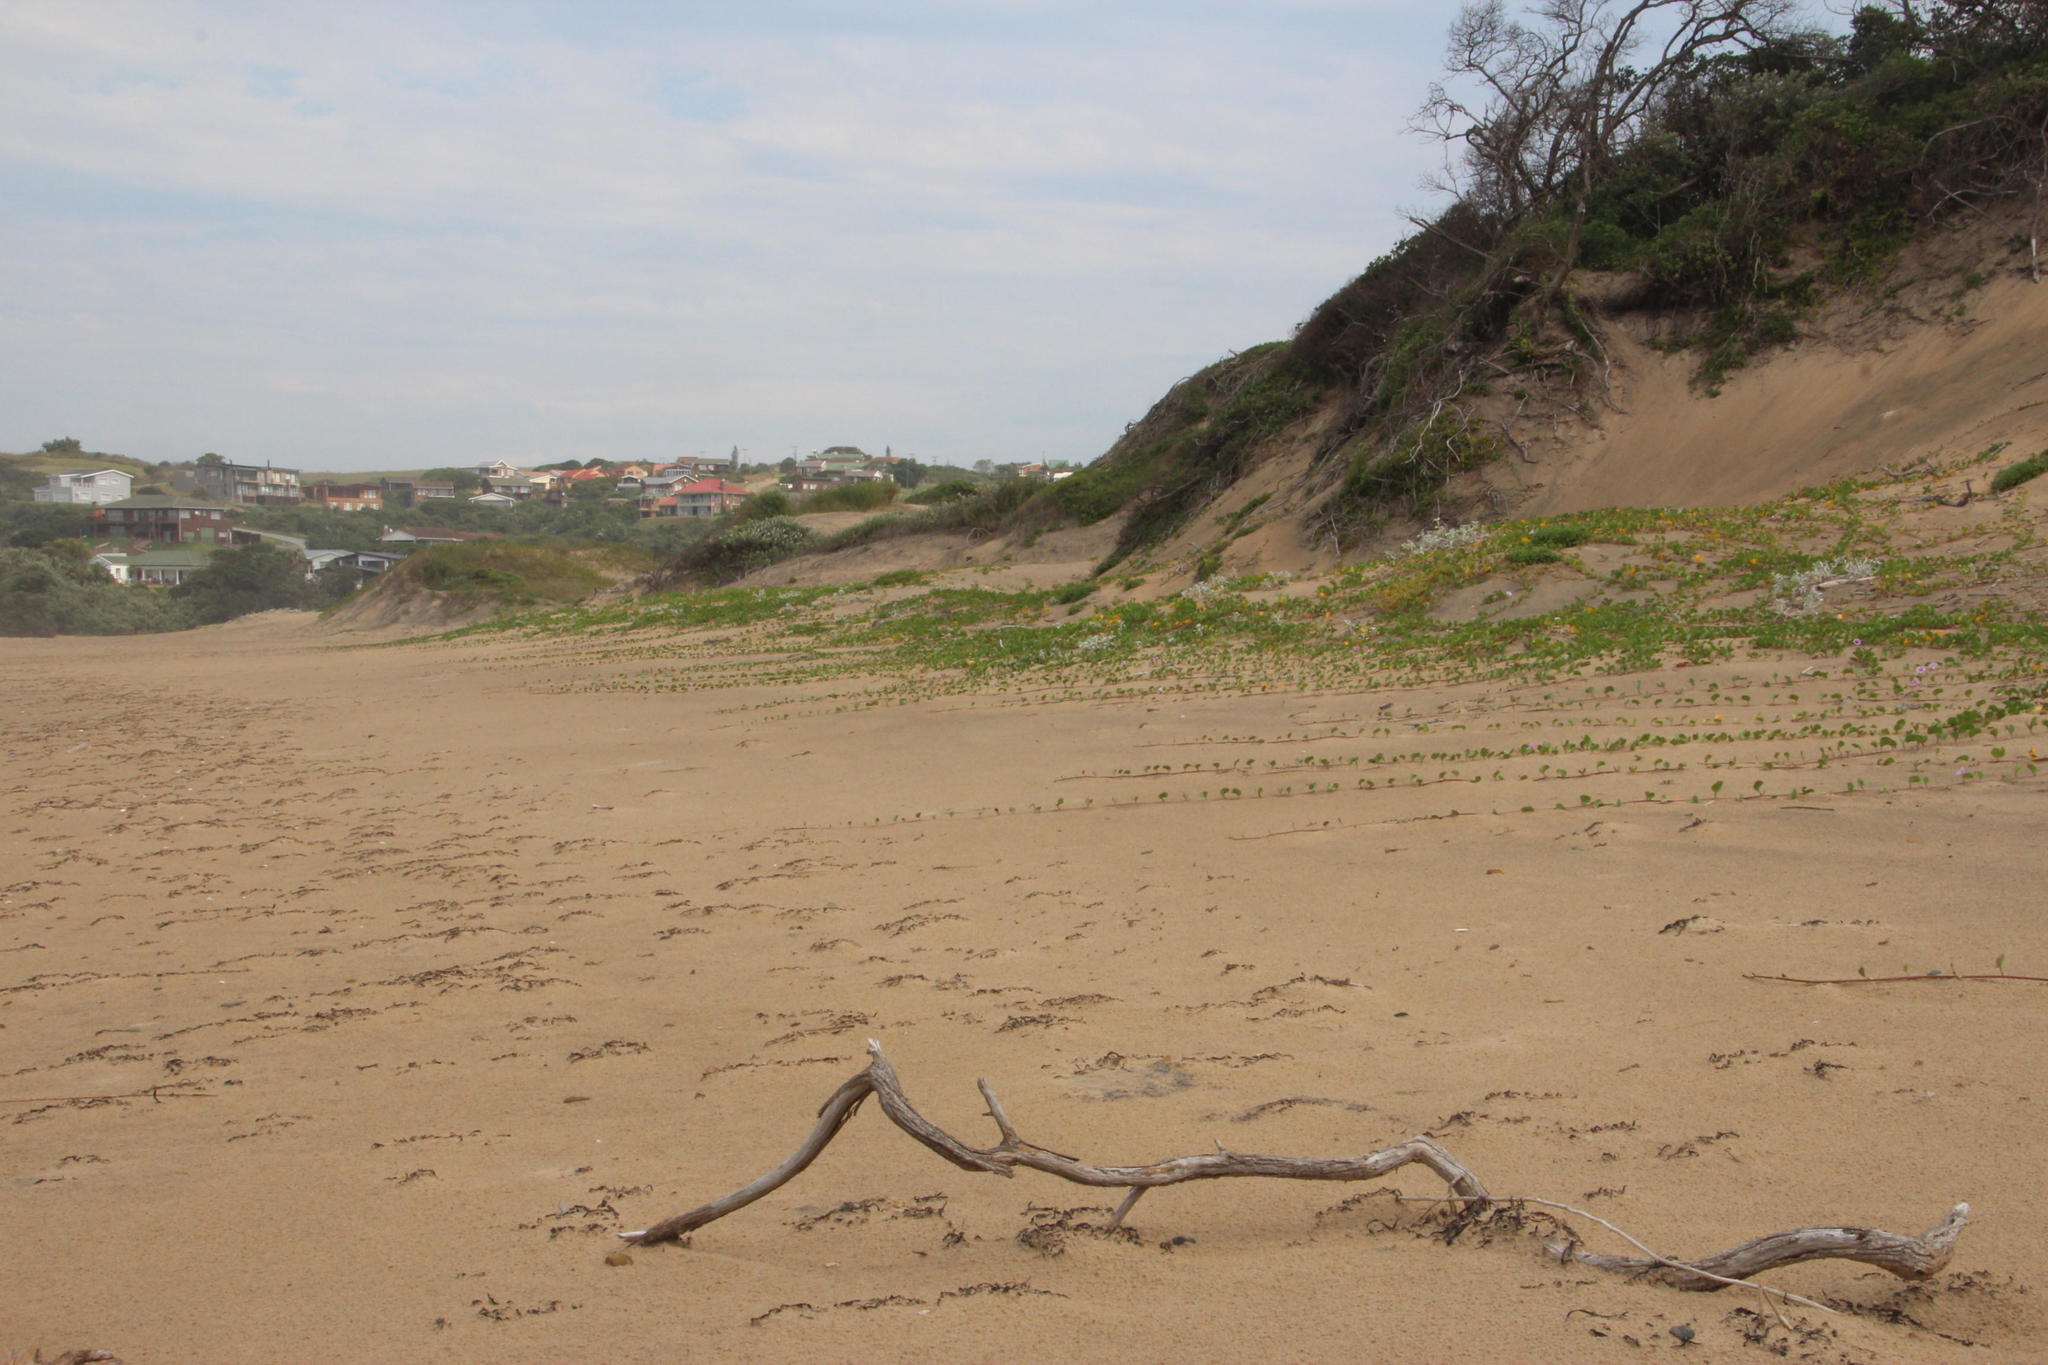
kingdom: Plantae
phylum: Tracheophyta
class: Magnoliopsida
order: Solanales
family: Convolvulaceae
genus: Ipomoea
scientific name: Ipomoea pes-caprae
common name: Beach morning glory
